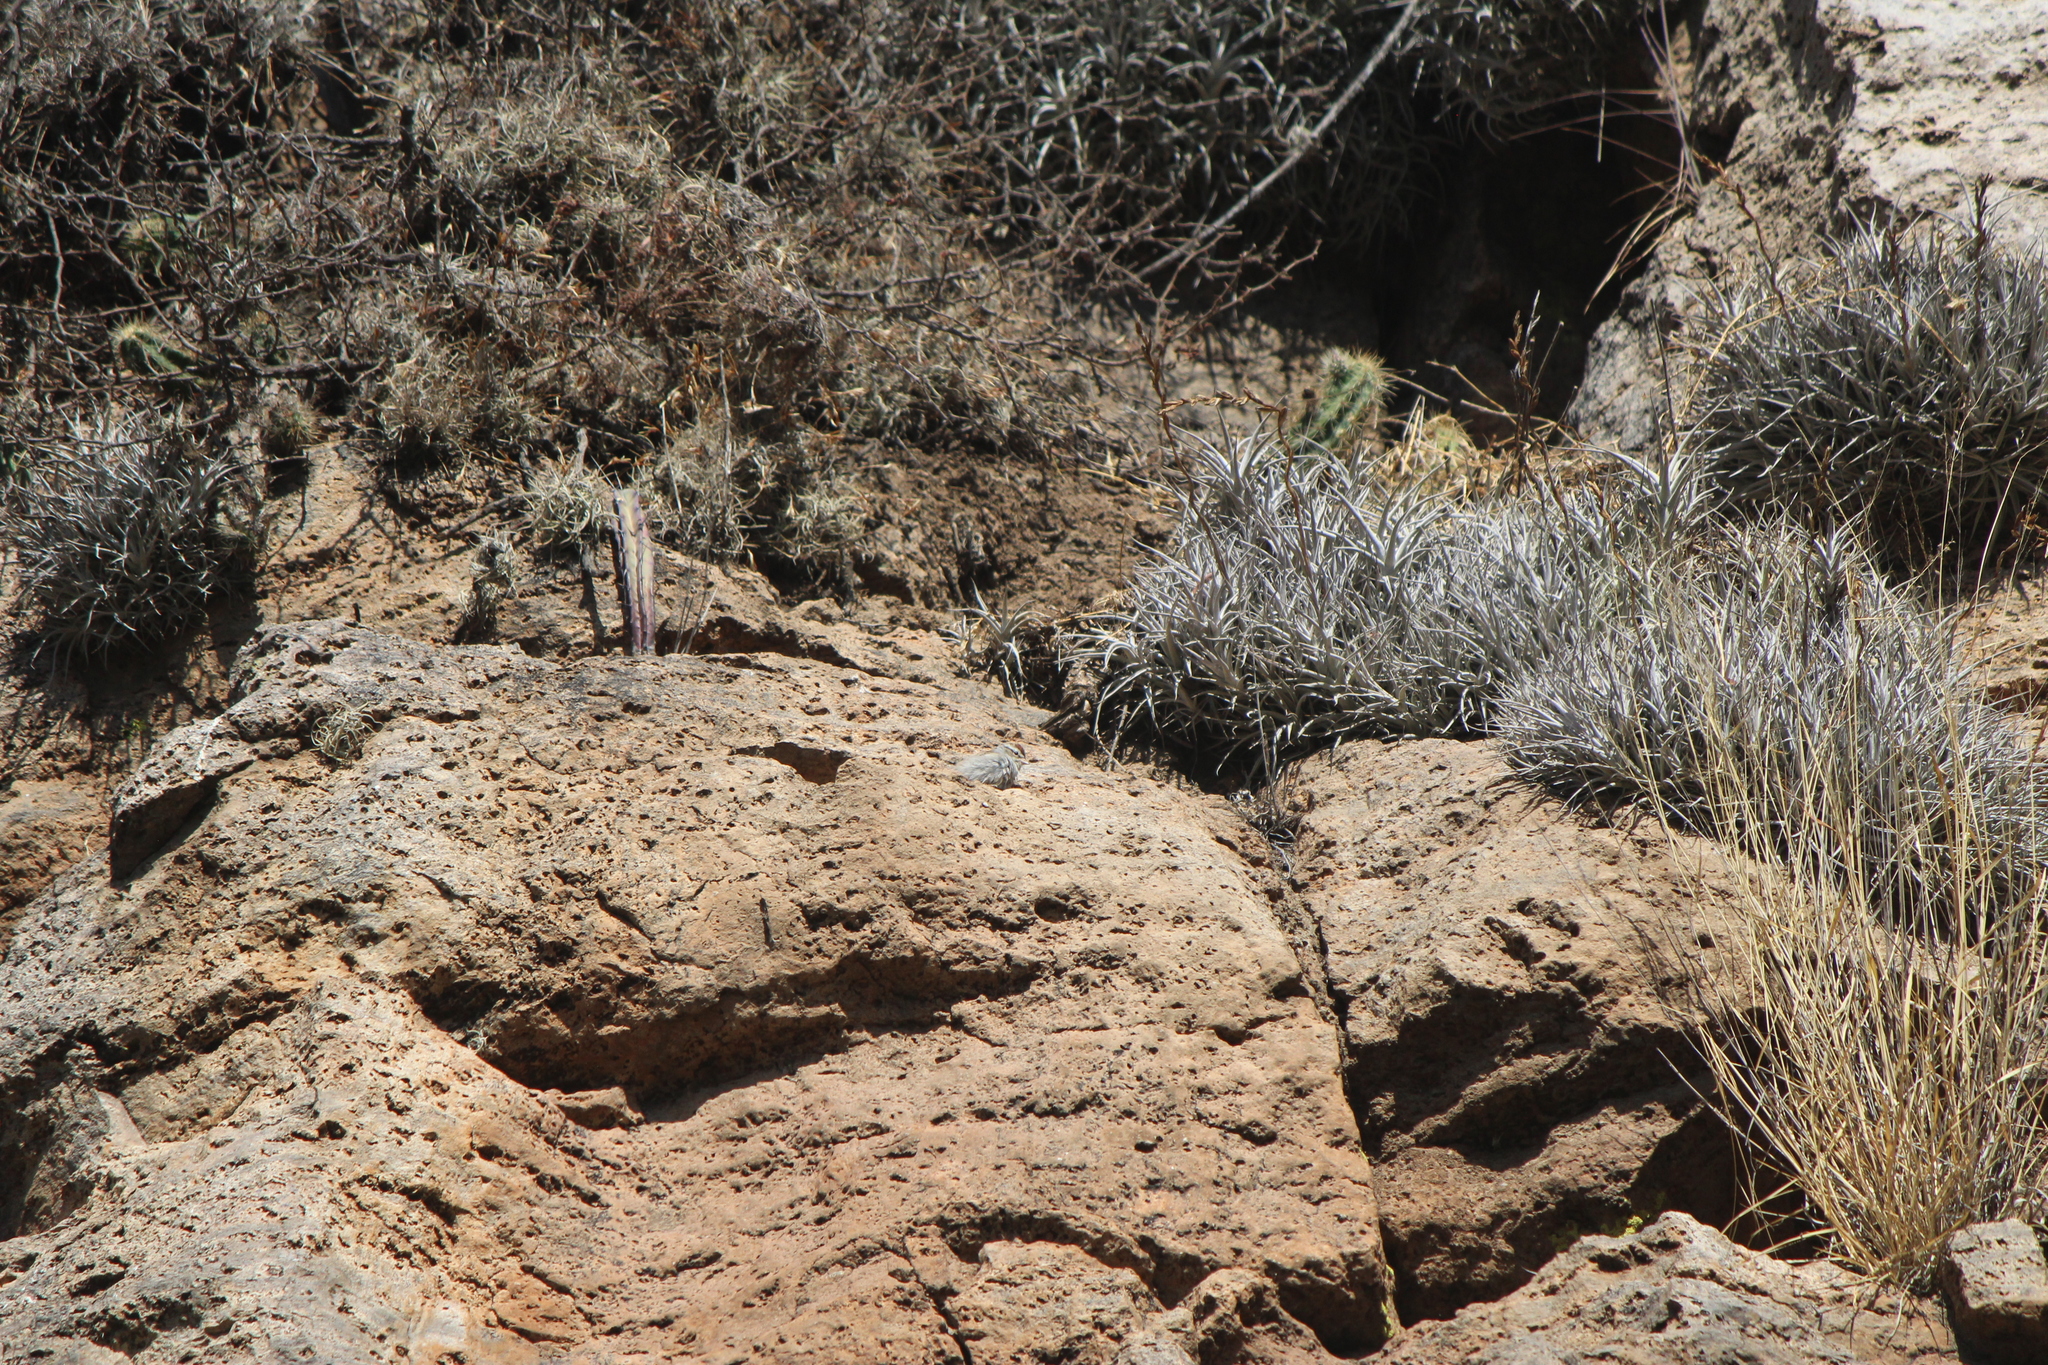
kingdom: Animalia
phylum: Chordata
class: Aves
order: Passeriformes
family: Passerellidae
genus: Spizella
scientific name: Spizella passerina
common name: Chipping sparrow
